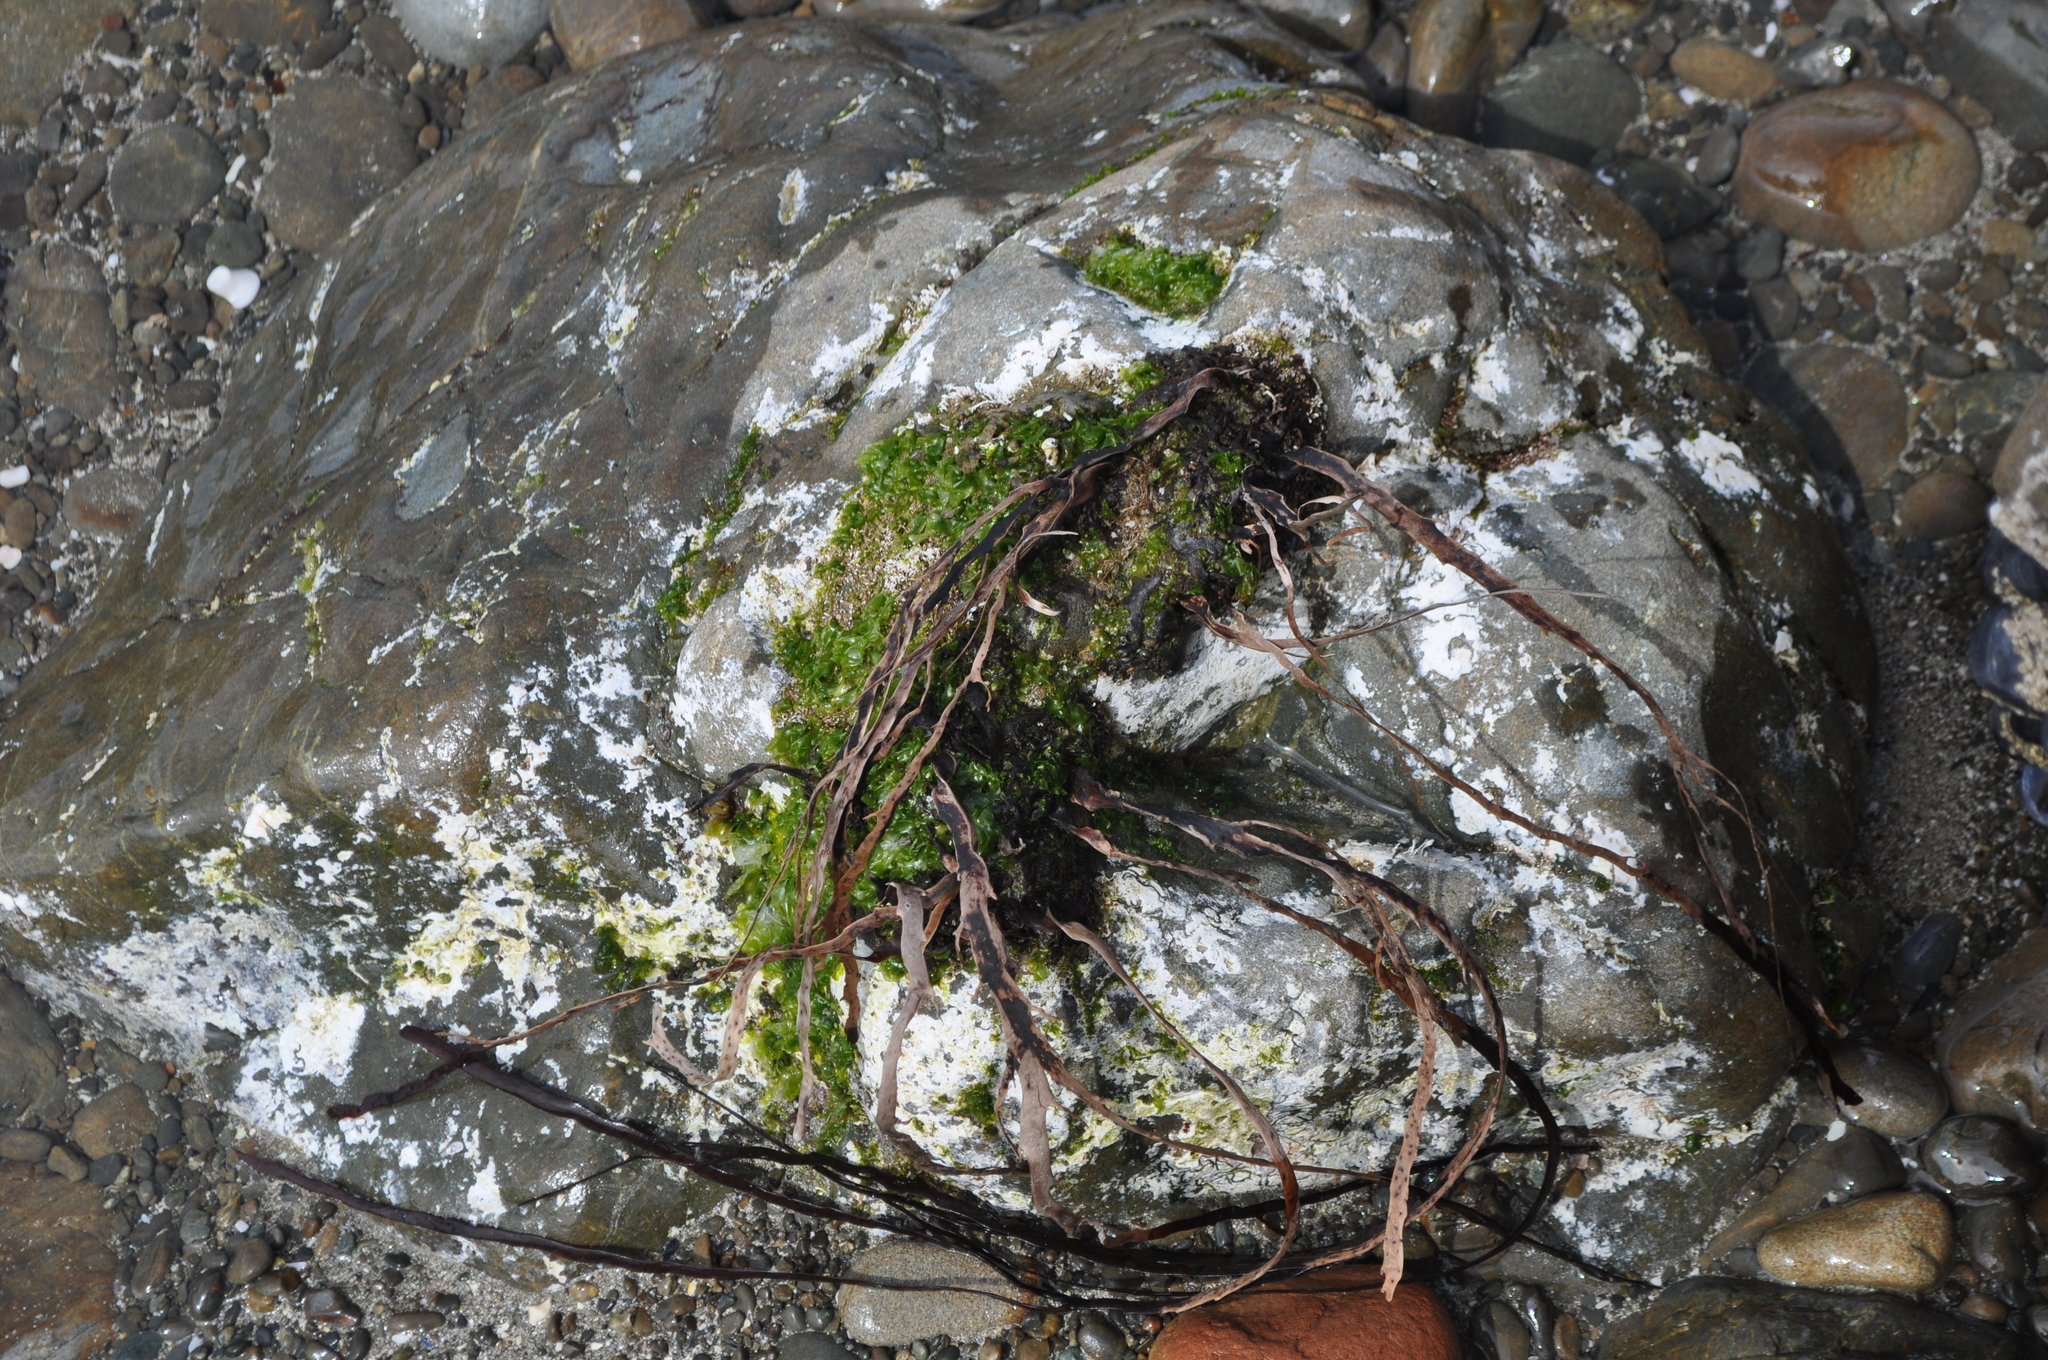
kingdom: Chromista
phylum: Ochrophyta
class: Phaeophyceae
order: Fucales
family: Sargassaceae
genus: Carpophyllum
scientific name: Carpophyllum maschalocarpum
